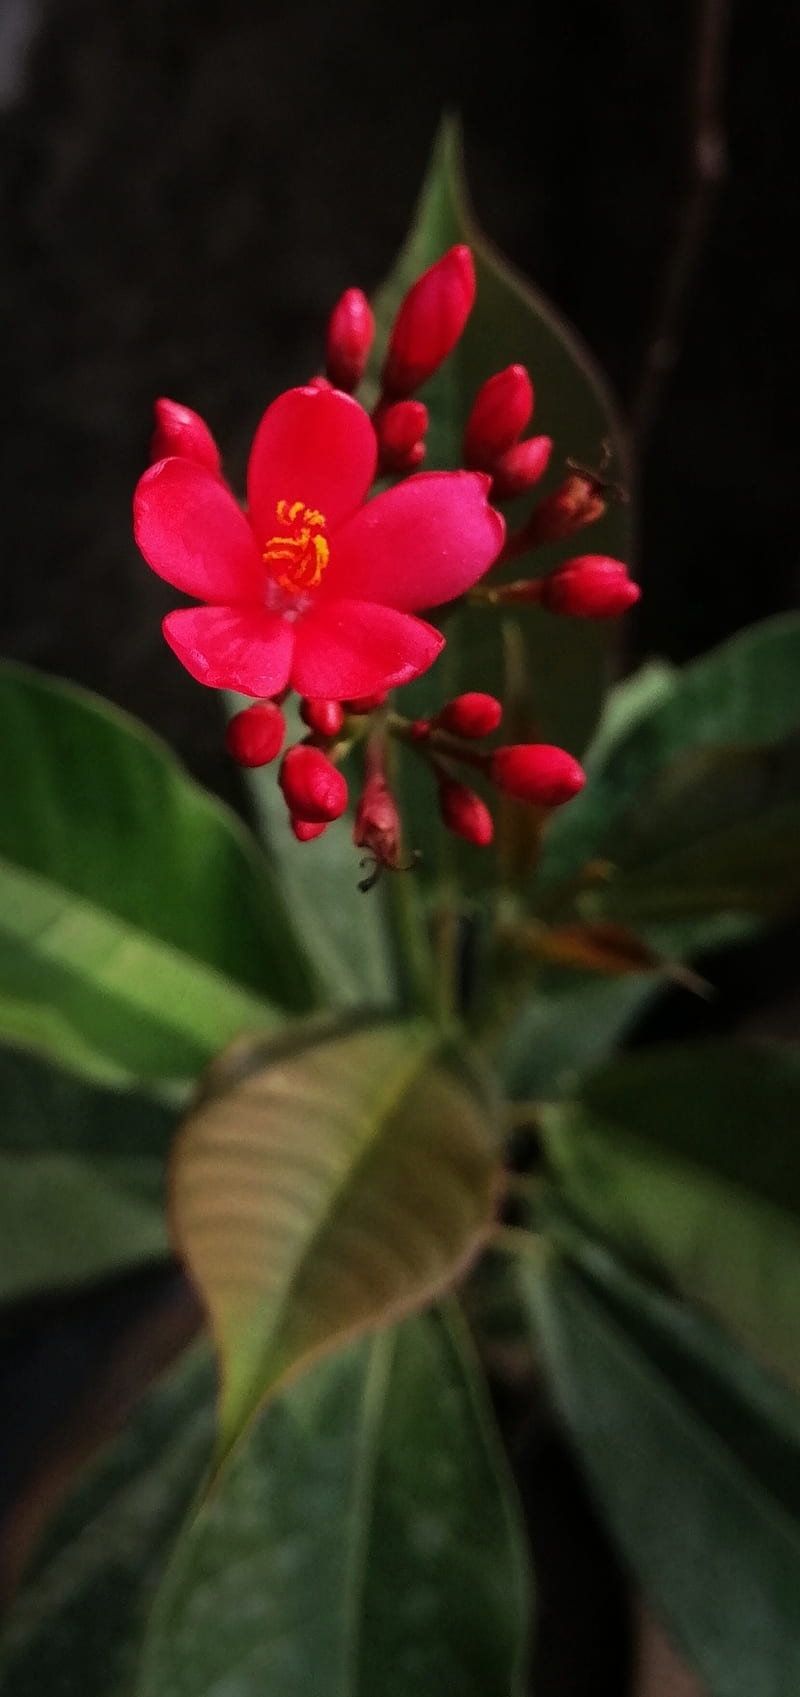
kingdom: Plantae
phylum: Tracheophyta
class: Magnoliopsida
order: Malpighiales
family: Euphorbiaceae
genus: Jatropha
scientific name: Jatropha integerrima
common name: Peregrina
